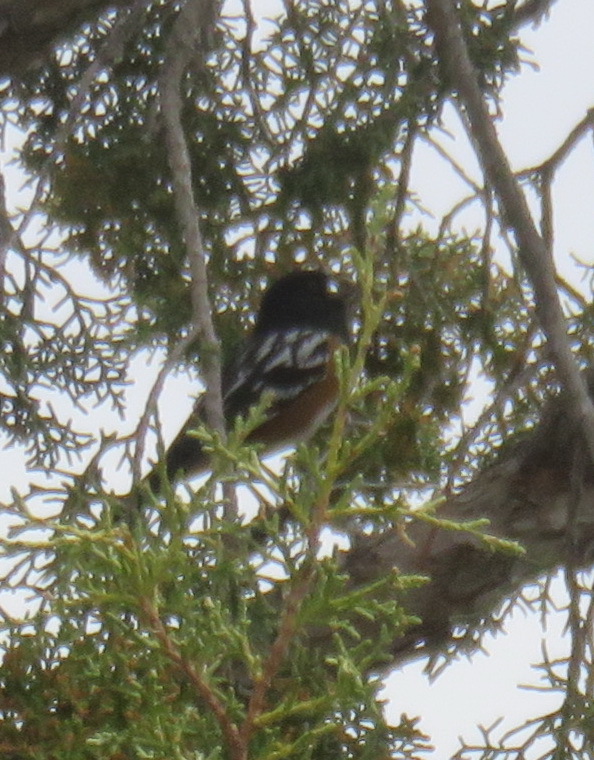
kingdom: Animalia
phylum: Chordata
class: Aves
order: Passeriformes
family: Passerellidae
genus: Pipilo
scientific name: Pipilo maculatus
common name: Spotted towhee
